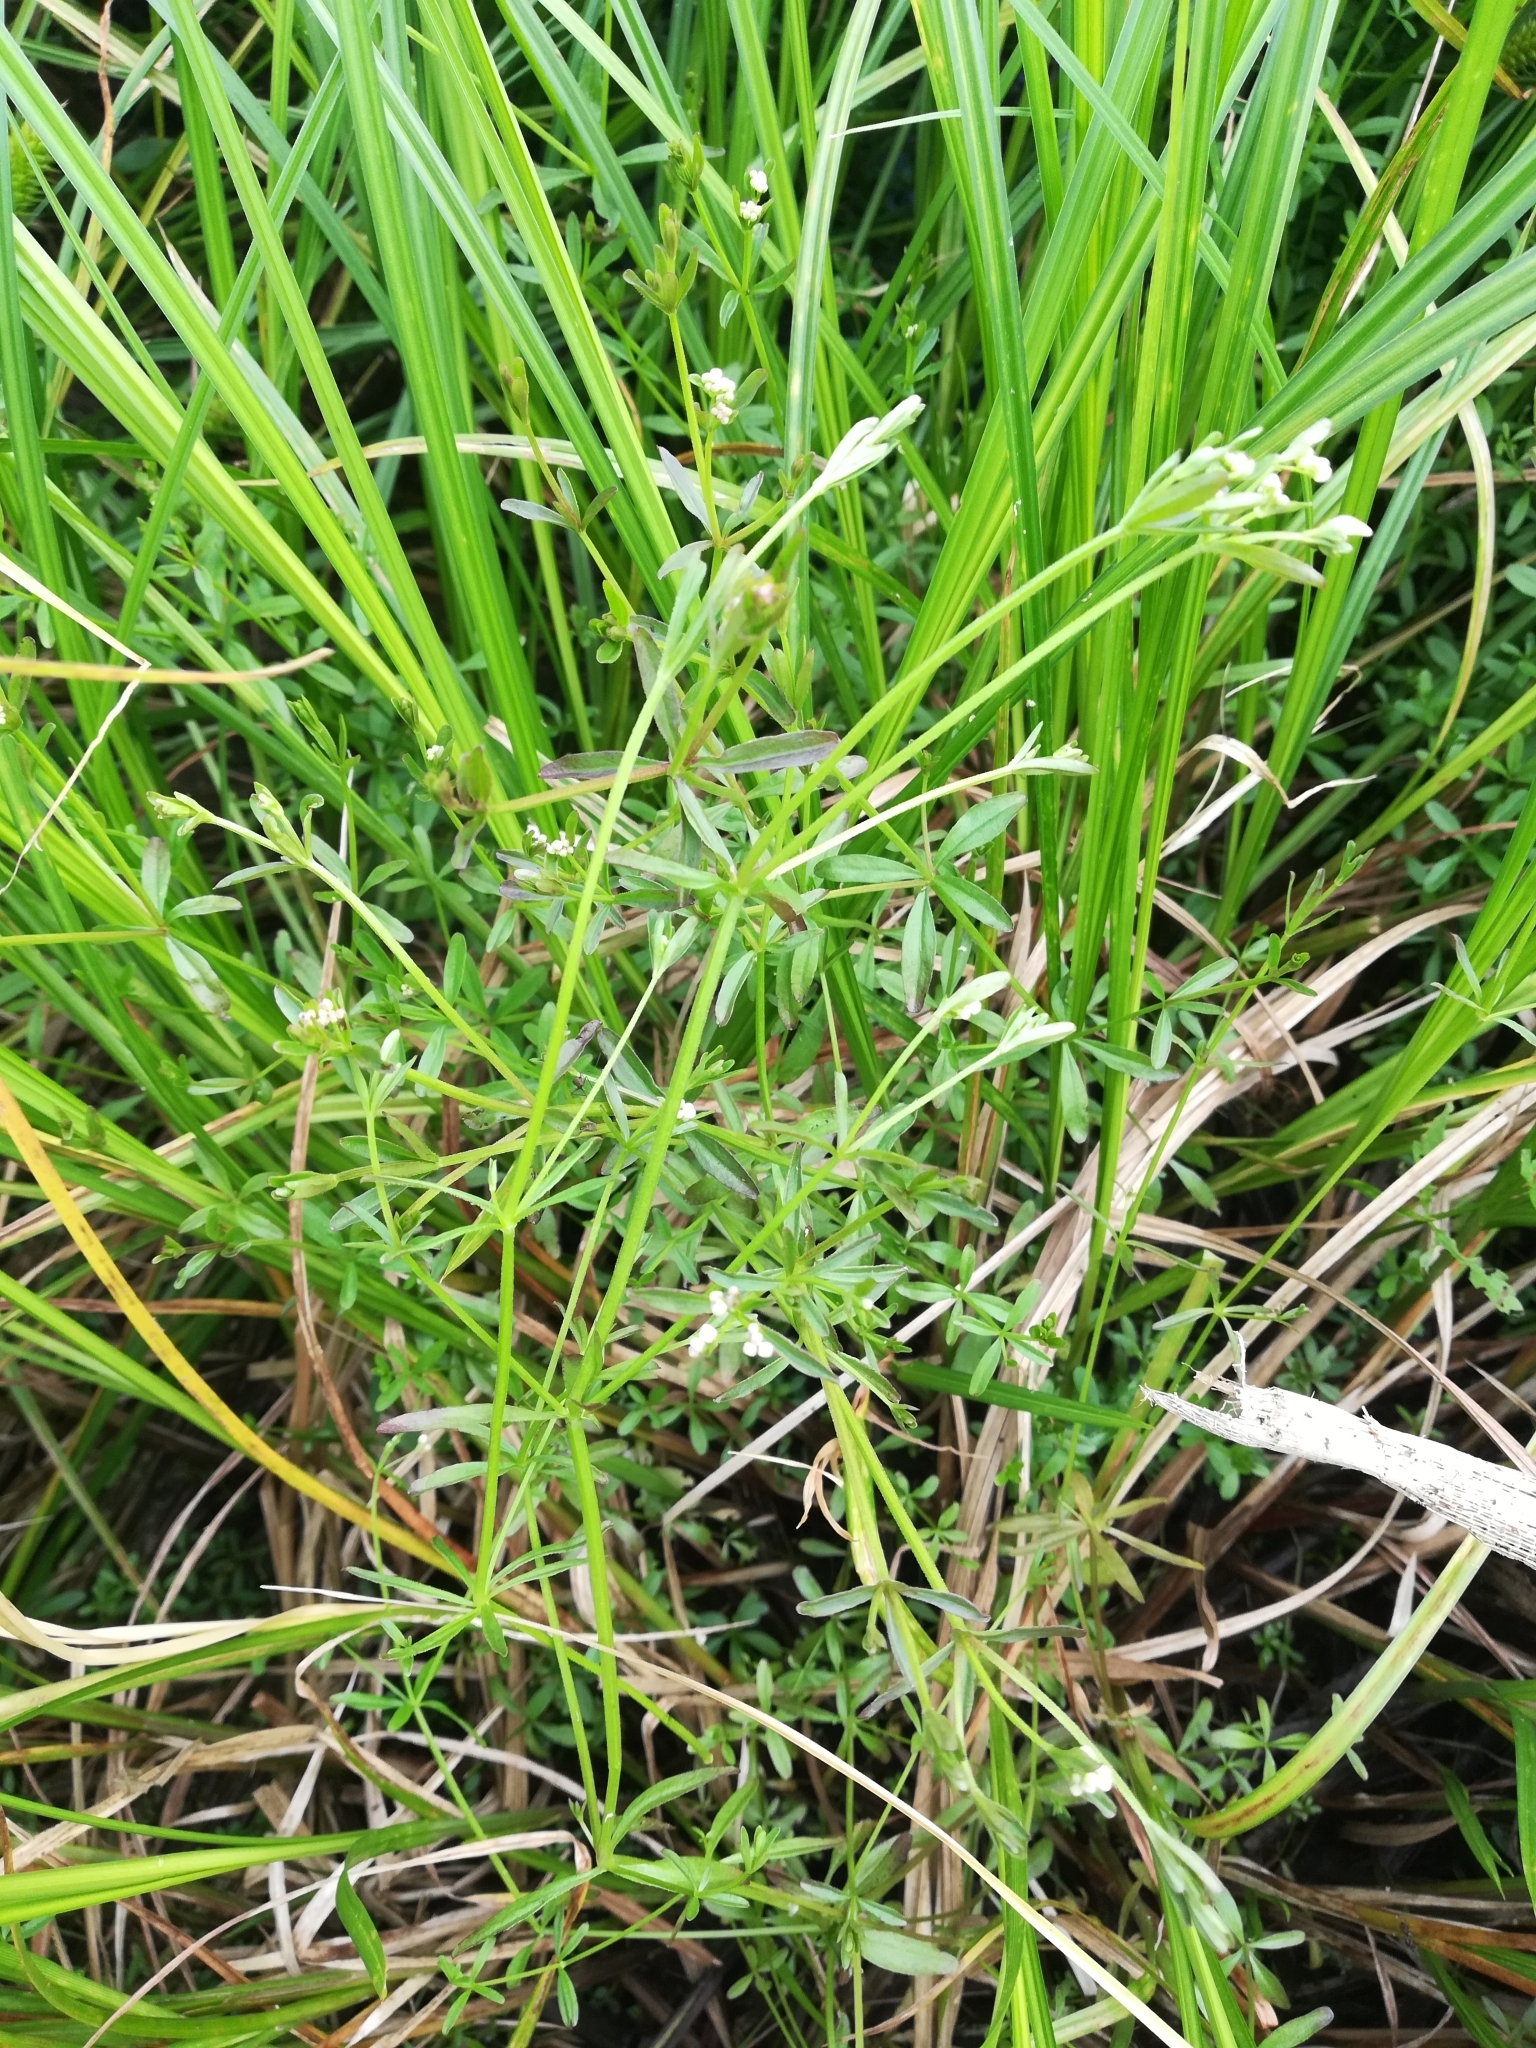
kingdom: Plantae
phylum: Tracheophyta
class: Magnoliopsida
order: Gentianales
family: Rubiaceae
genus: Galium
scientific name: Galium palustre
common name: Common marsh-bedstraw
